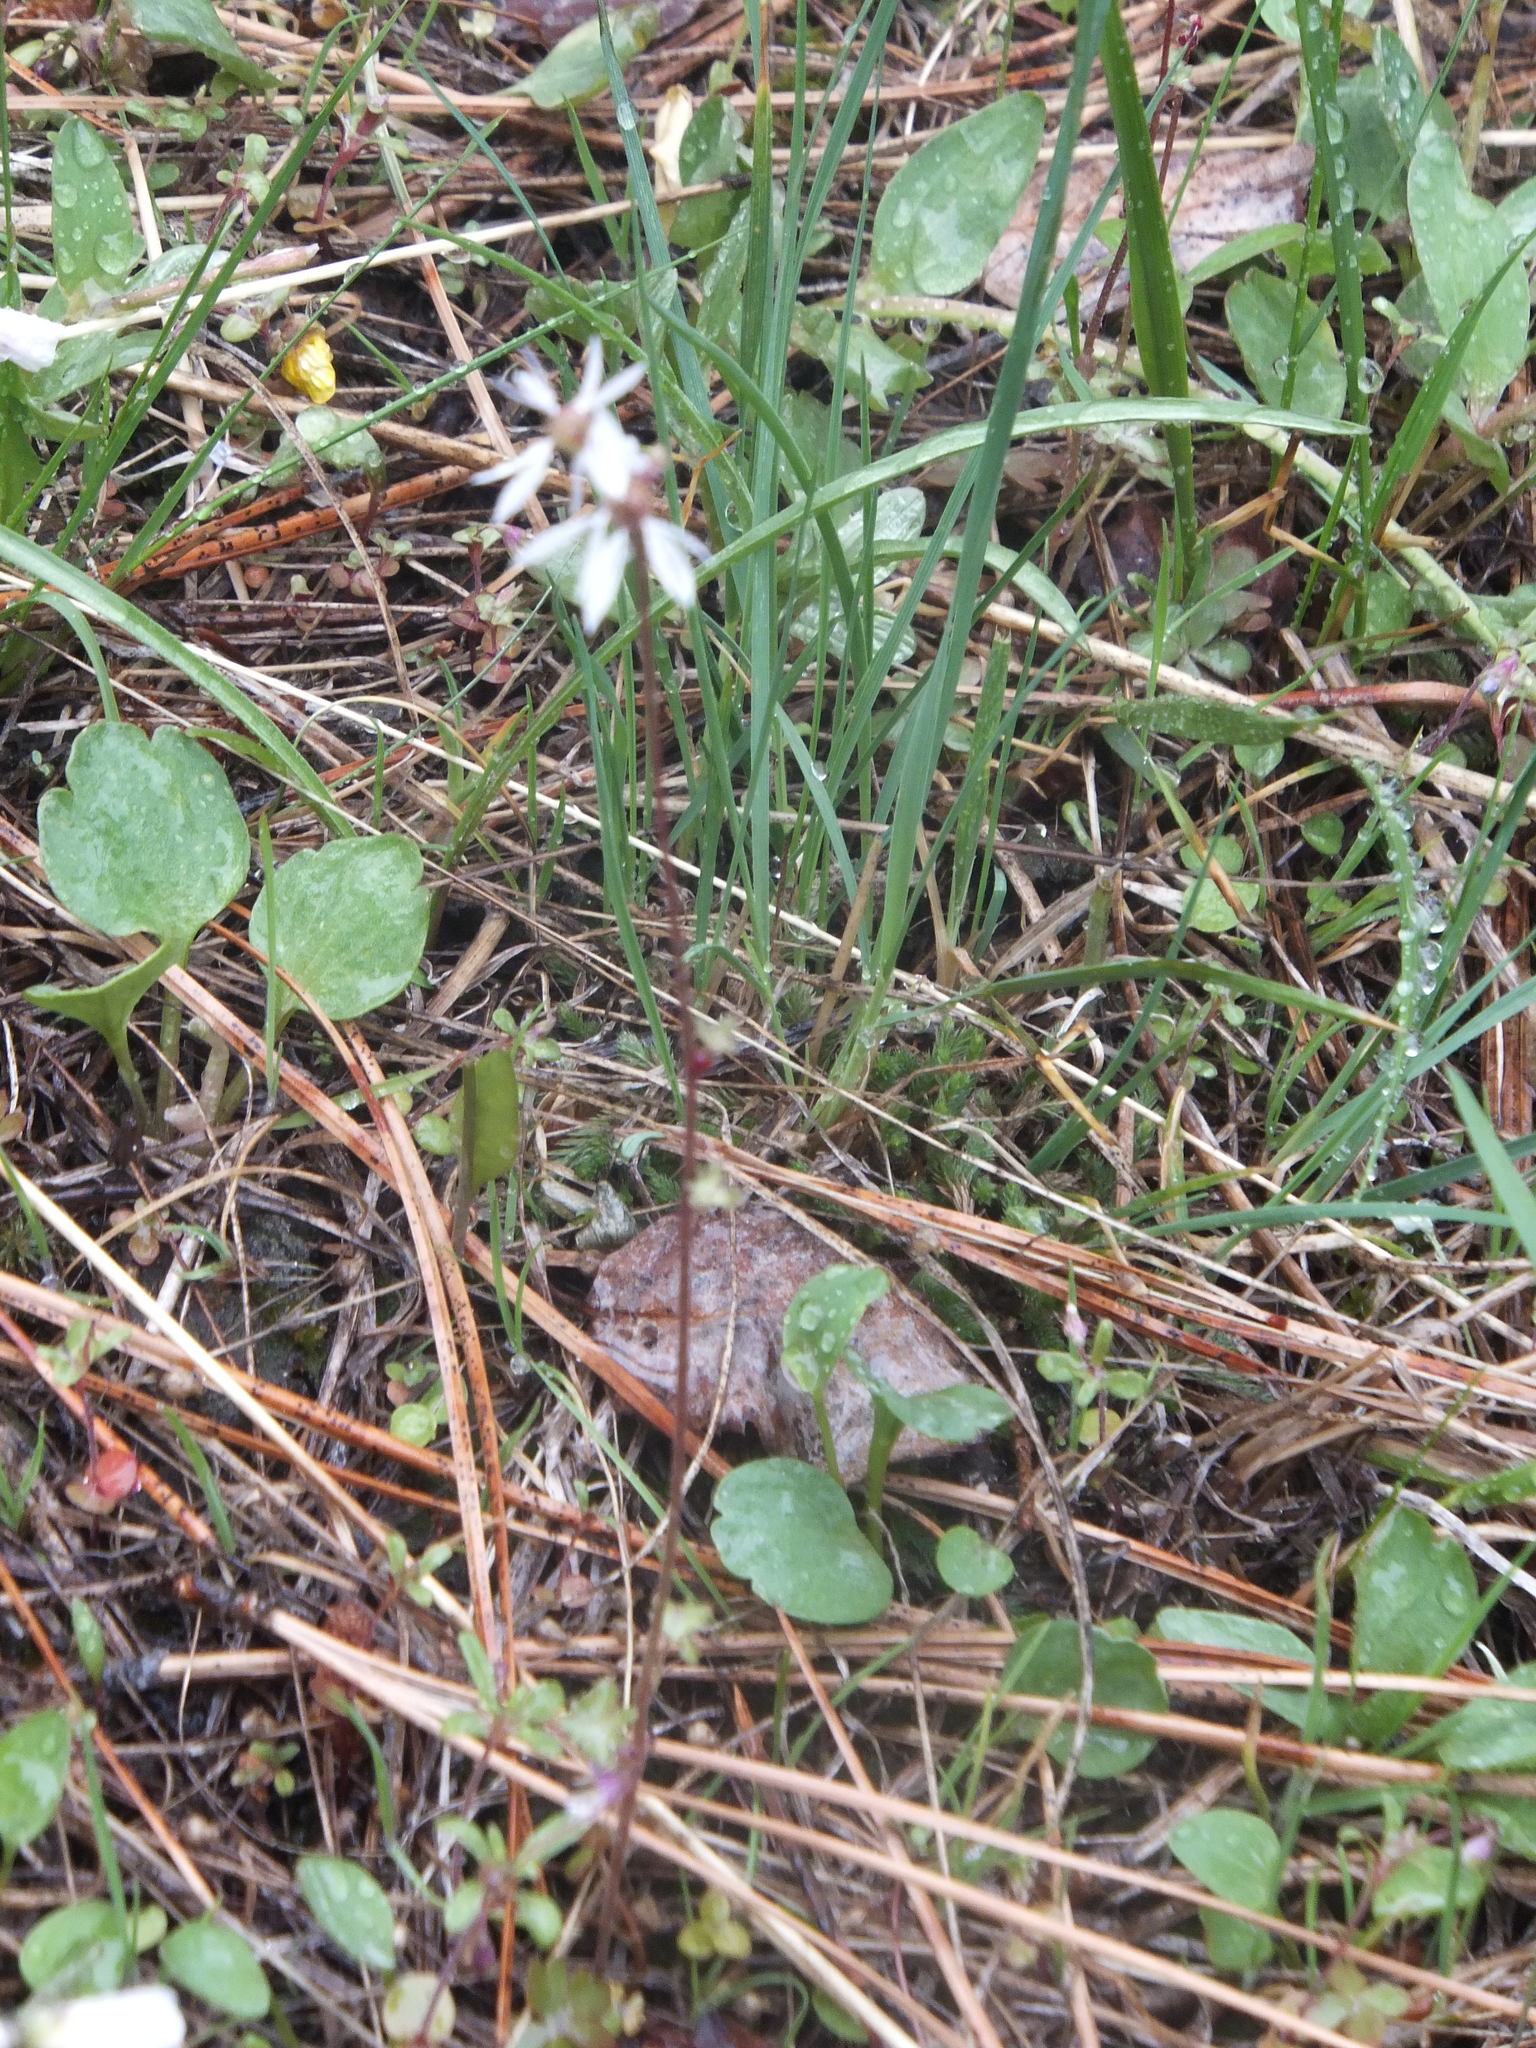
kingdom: Plantae
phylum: Tracheophyta
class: Magnoliopsida
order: Saxifragales
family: Saxifragaceae
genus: Lithophragma
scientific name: Lithophragma glabrum
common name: Bulbous prairie-star
